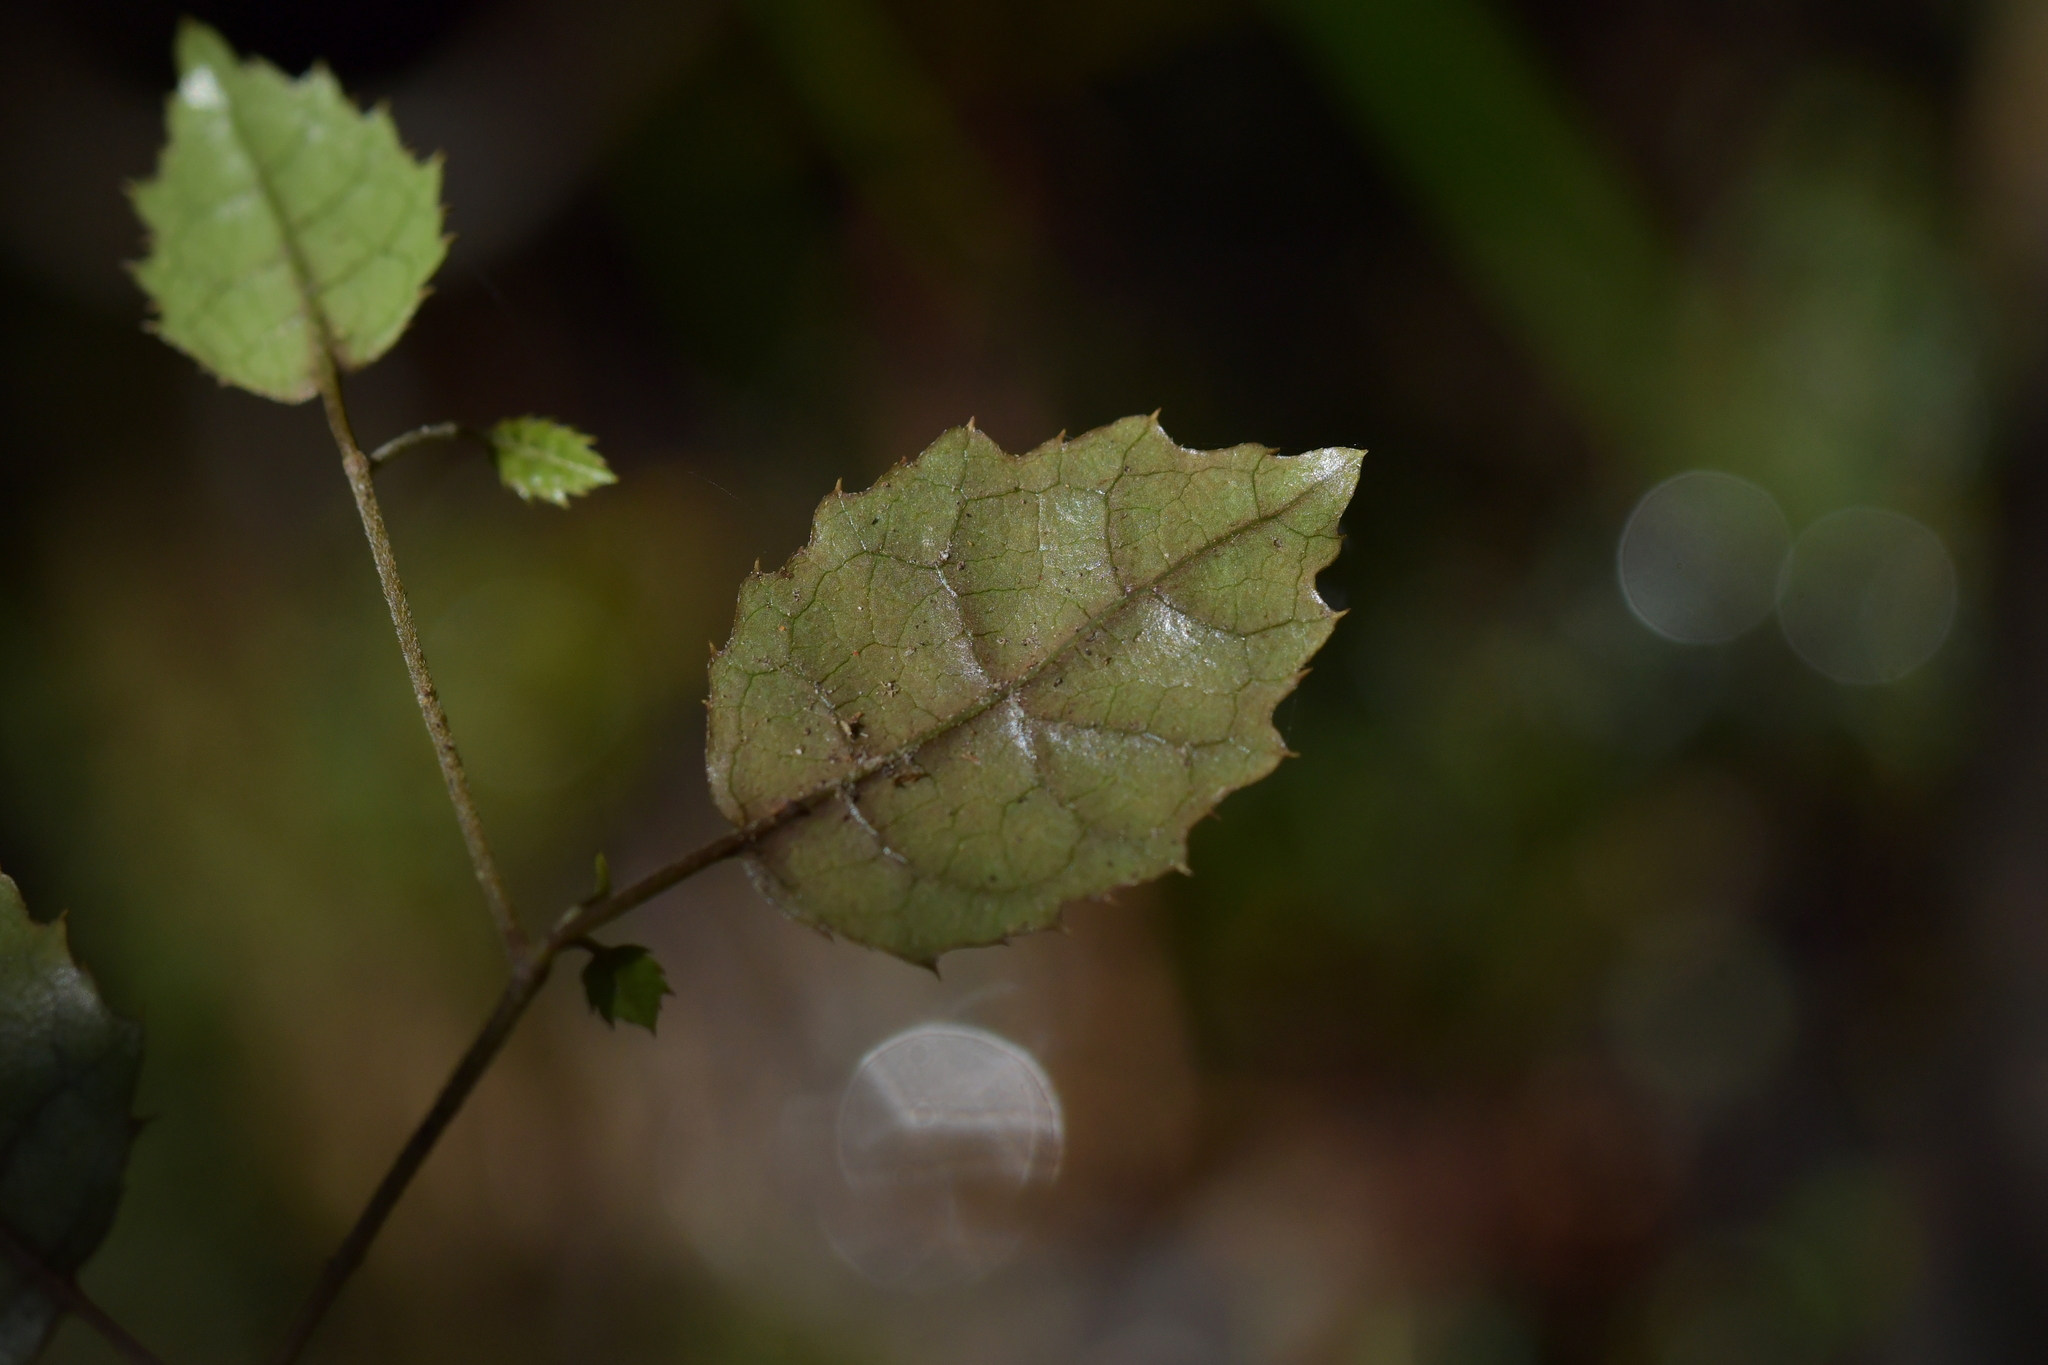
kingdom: Plantae
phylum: Tracheophyta
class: Magnoliopsida
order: Asterales
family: Rousseaceae
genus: Carpodetus
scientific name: Carpodetus serratus
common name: White mapau
